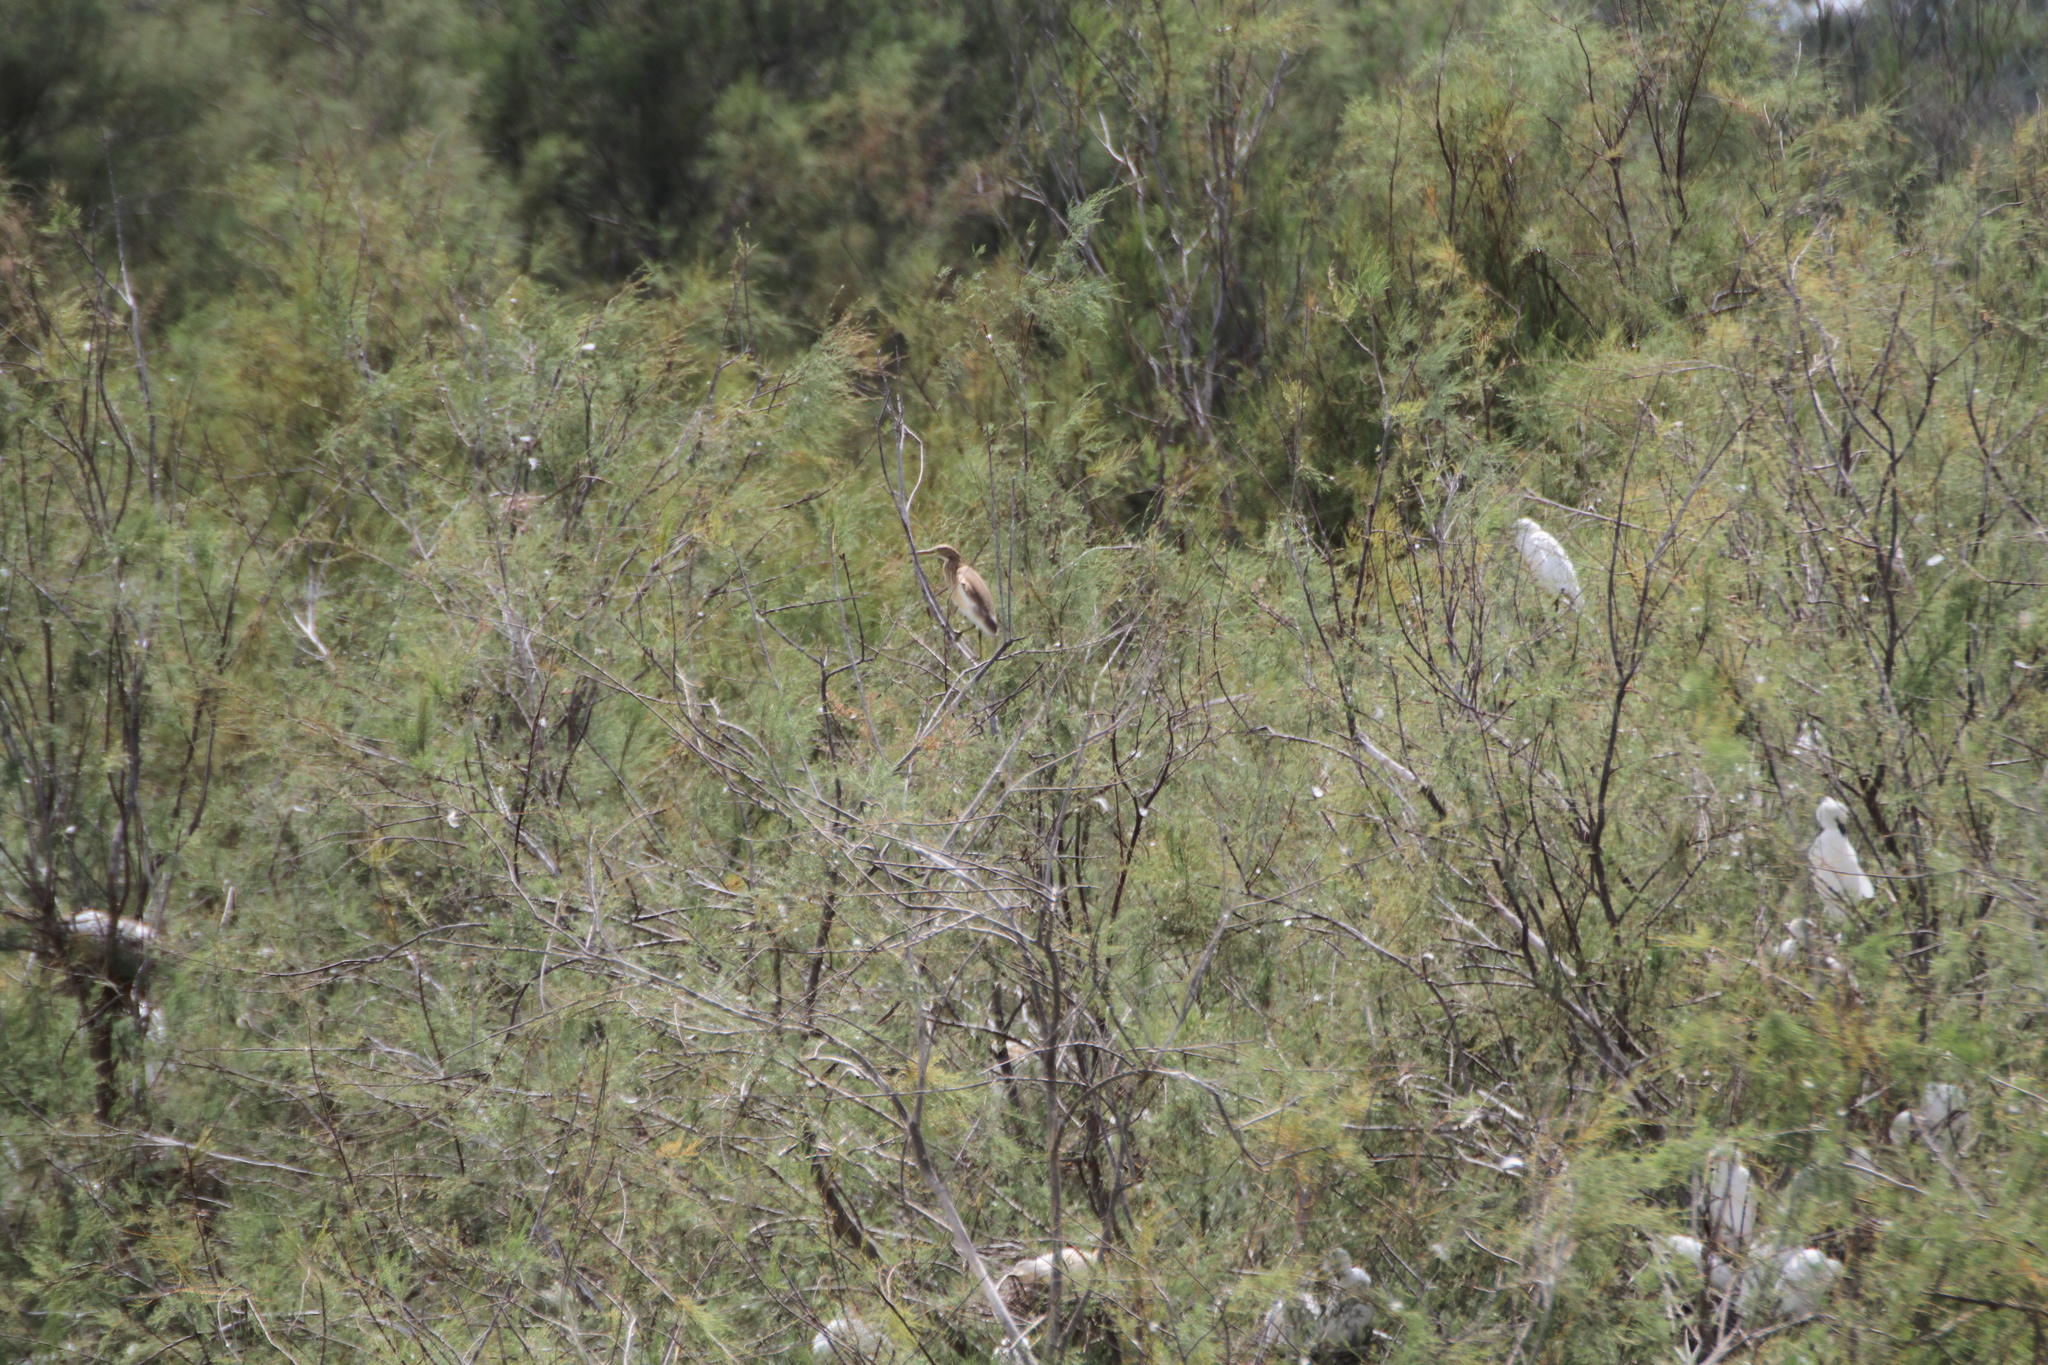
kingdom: Animalia
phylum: Chordata
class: Aves
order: Pelecaniformes
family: Ardeidae
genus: Ardeola
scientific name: Ardeola ralloides
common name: Squacco heron
